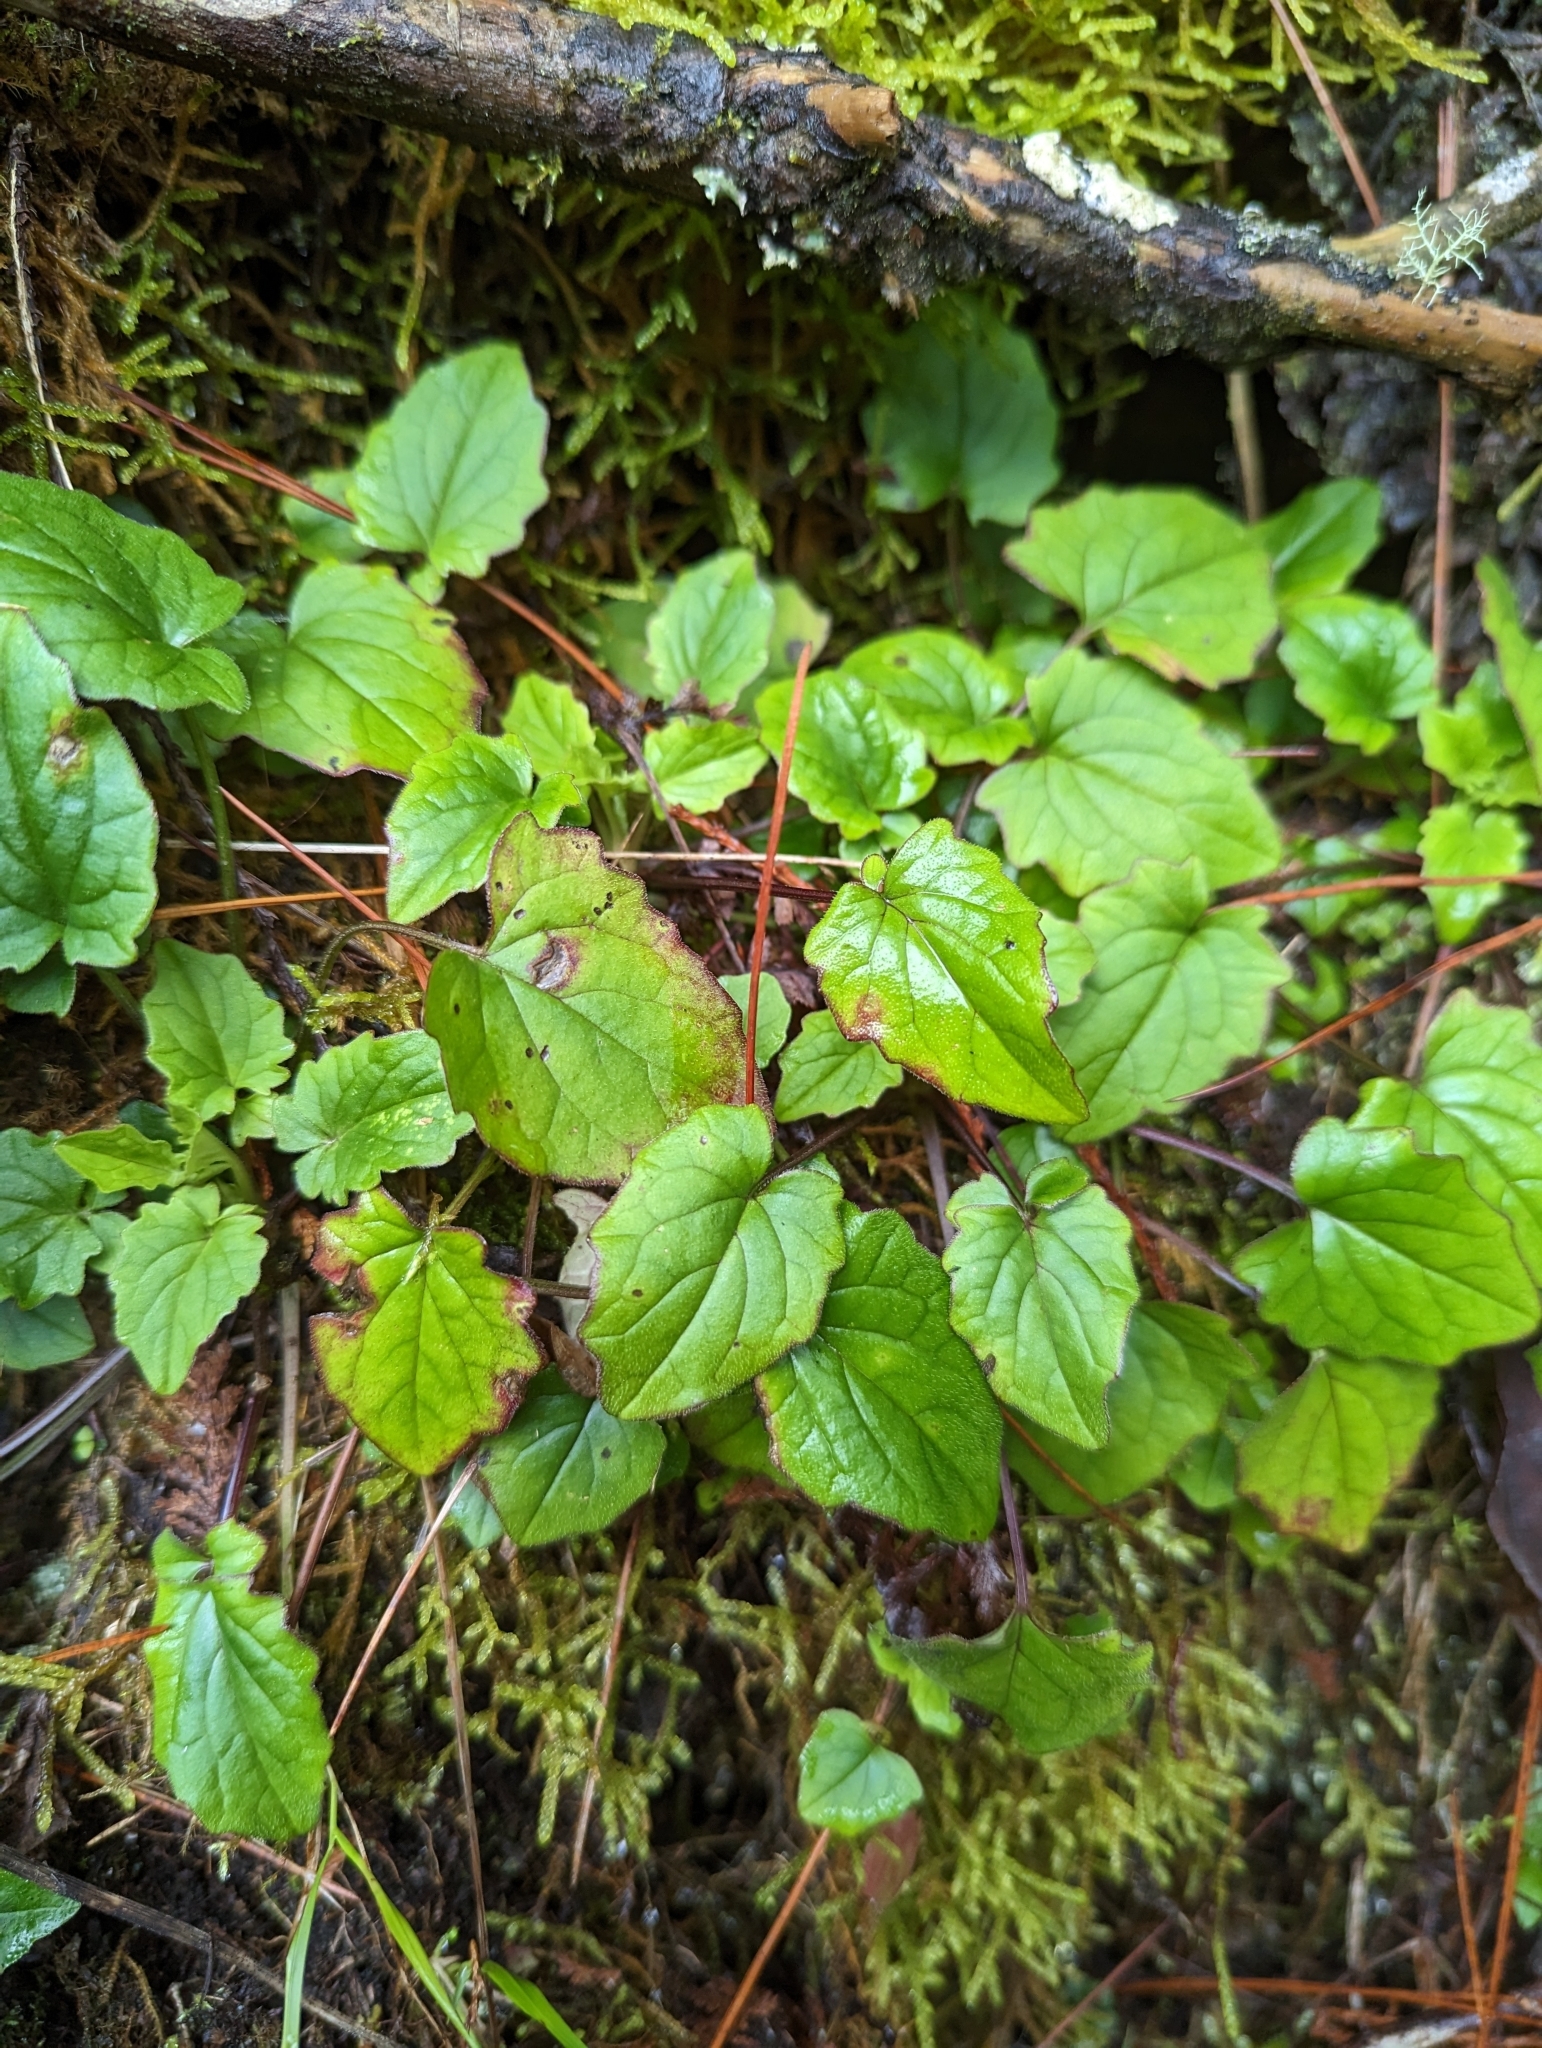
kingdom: Plantae
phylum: Tracheophyta
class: Magnoliopsida
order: Dipsacales
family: Caprifoliaceae
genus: Valeriana
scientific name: Valeriana flaccidissima
